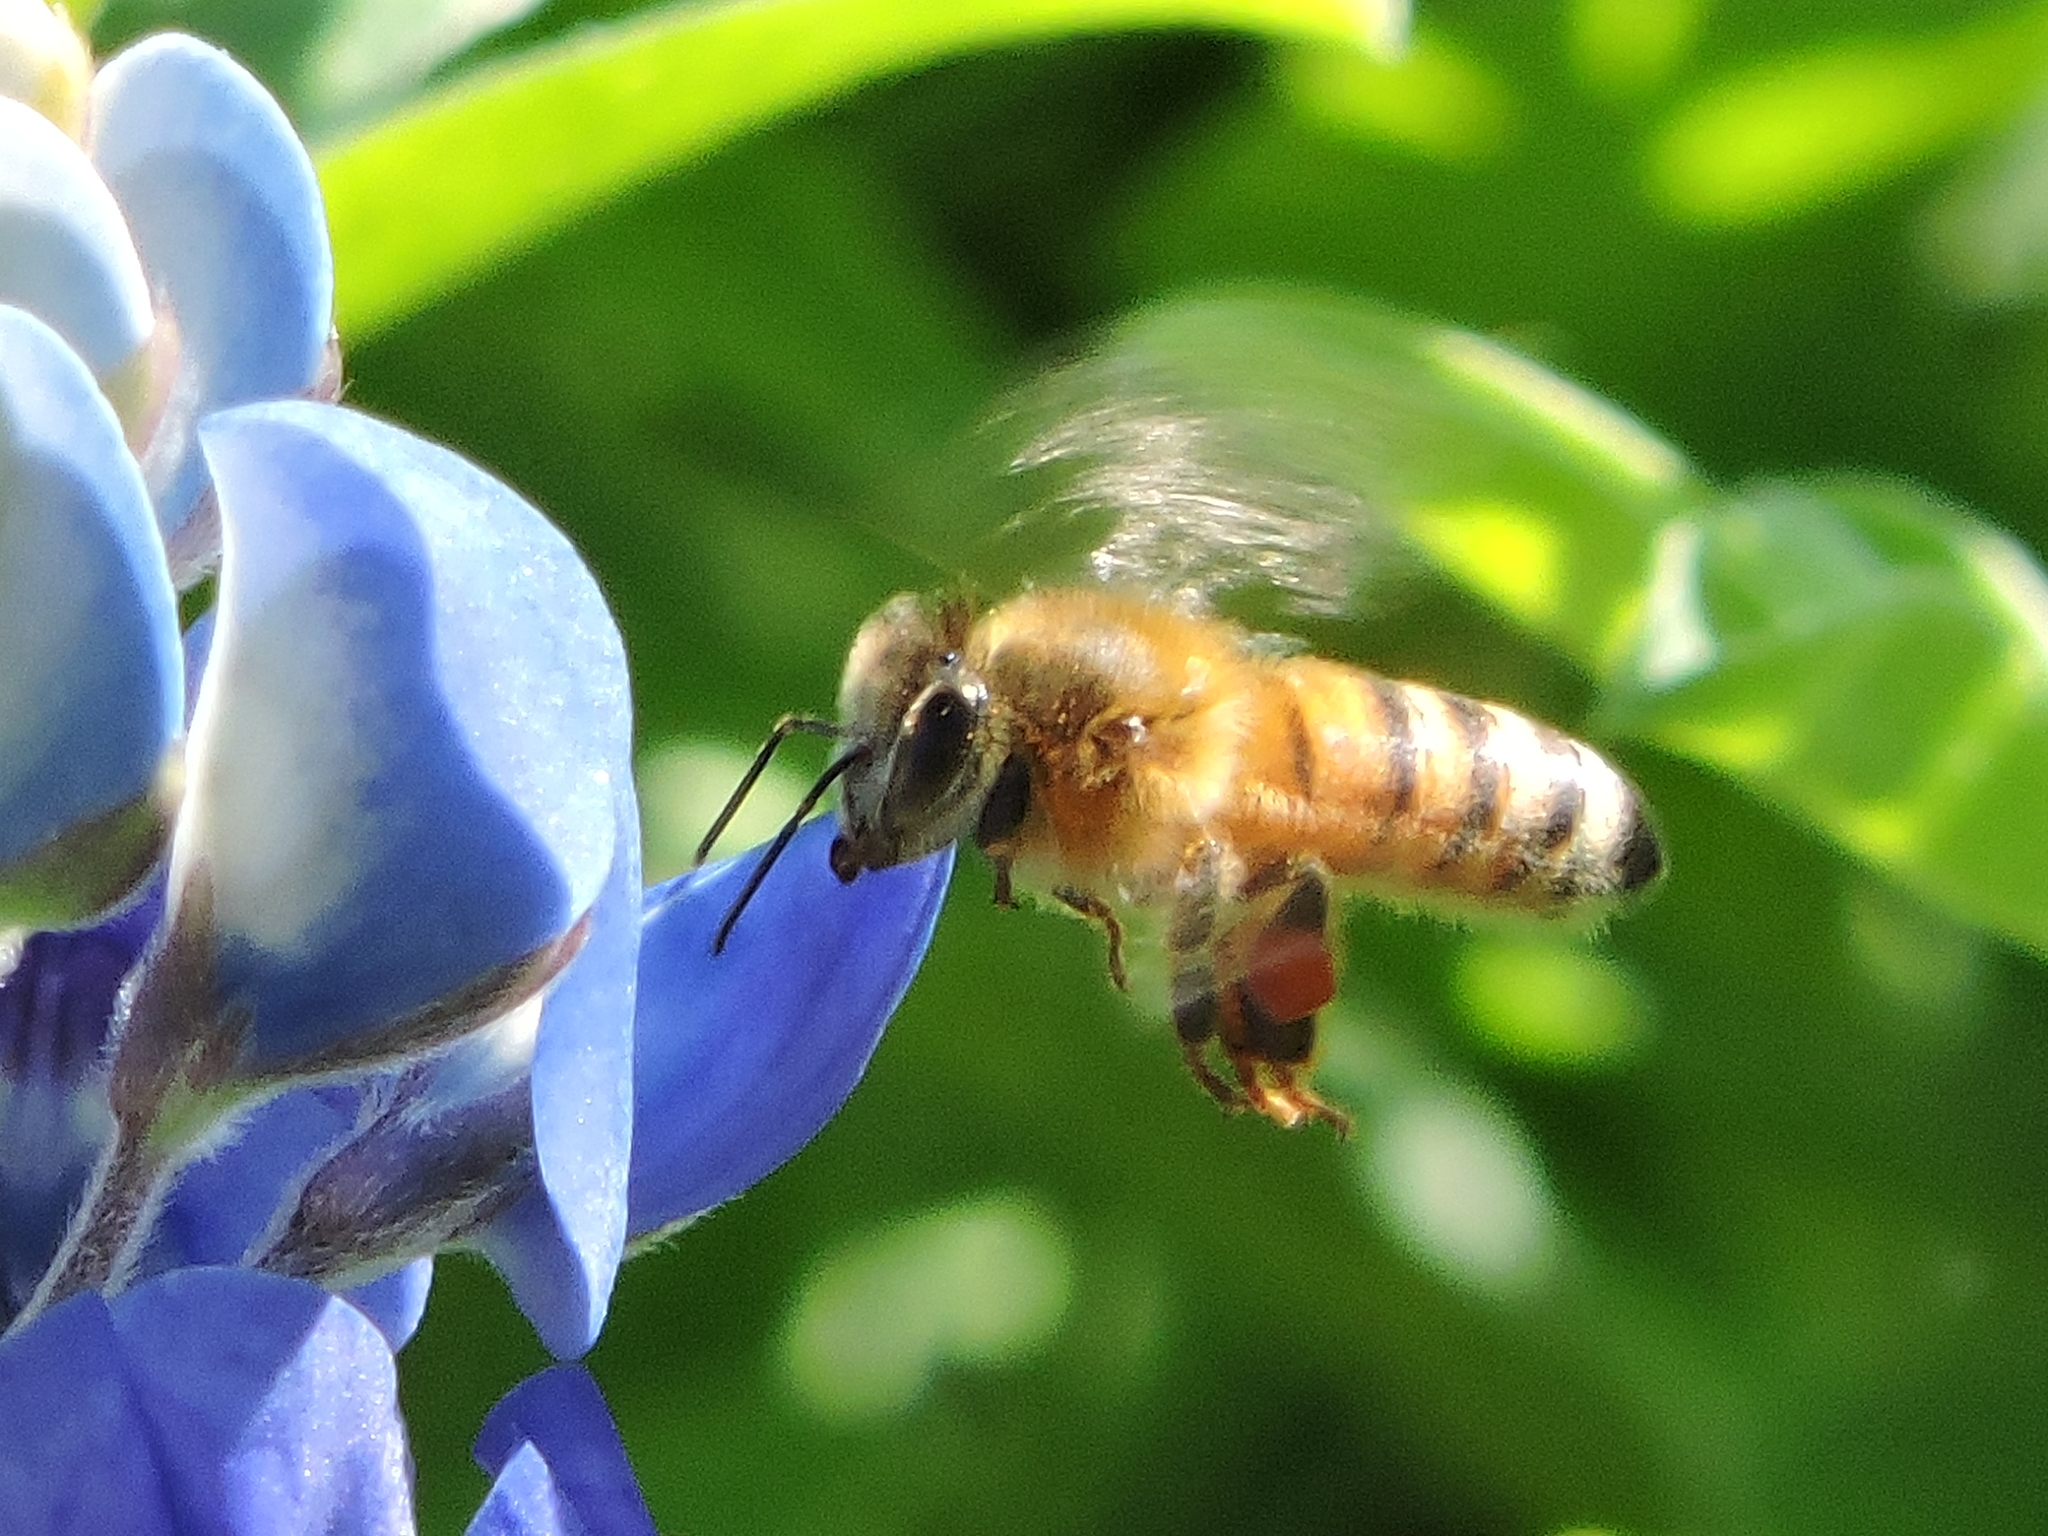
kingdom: Animalia
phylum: Arthropoda
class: Insecta
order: Hymenoptera
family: Apidae
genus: Apis
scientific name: Apis mellifera
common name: Honey bee
